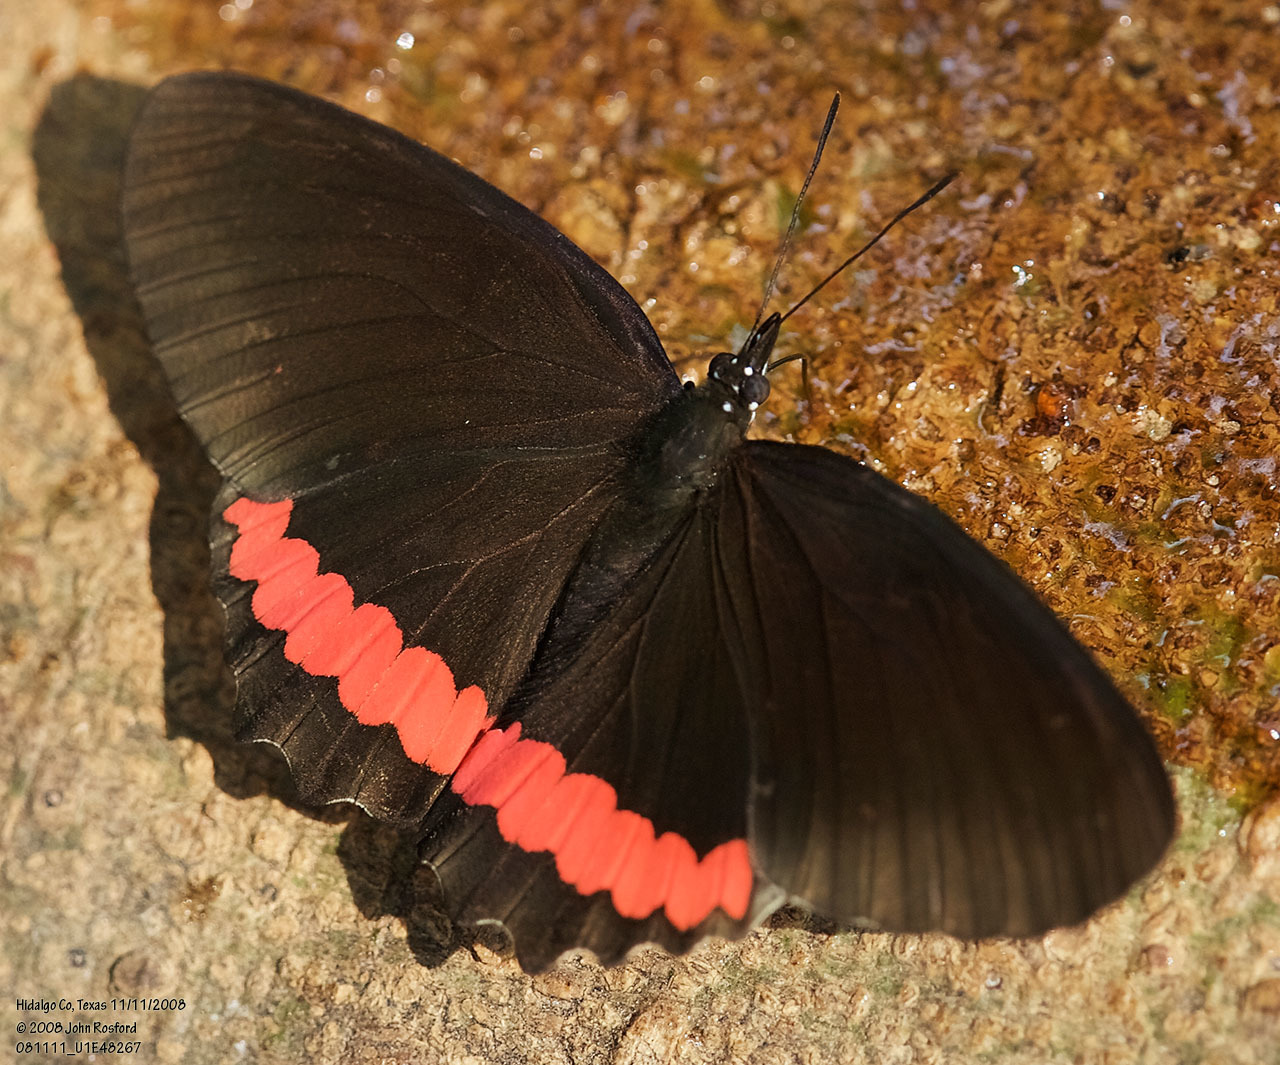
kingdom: Animalia
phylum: Arthropoda
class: Insecta
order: Lepidoptera
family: Nymphalidae
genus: Biblis
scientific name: Biblis aganisa
